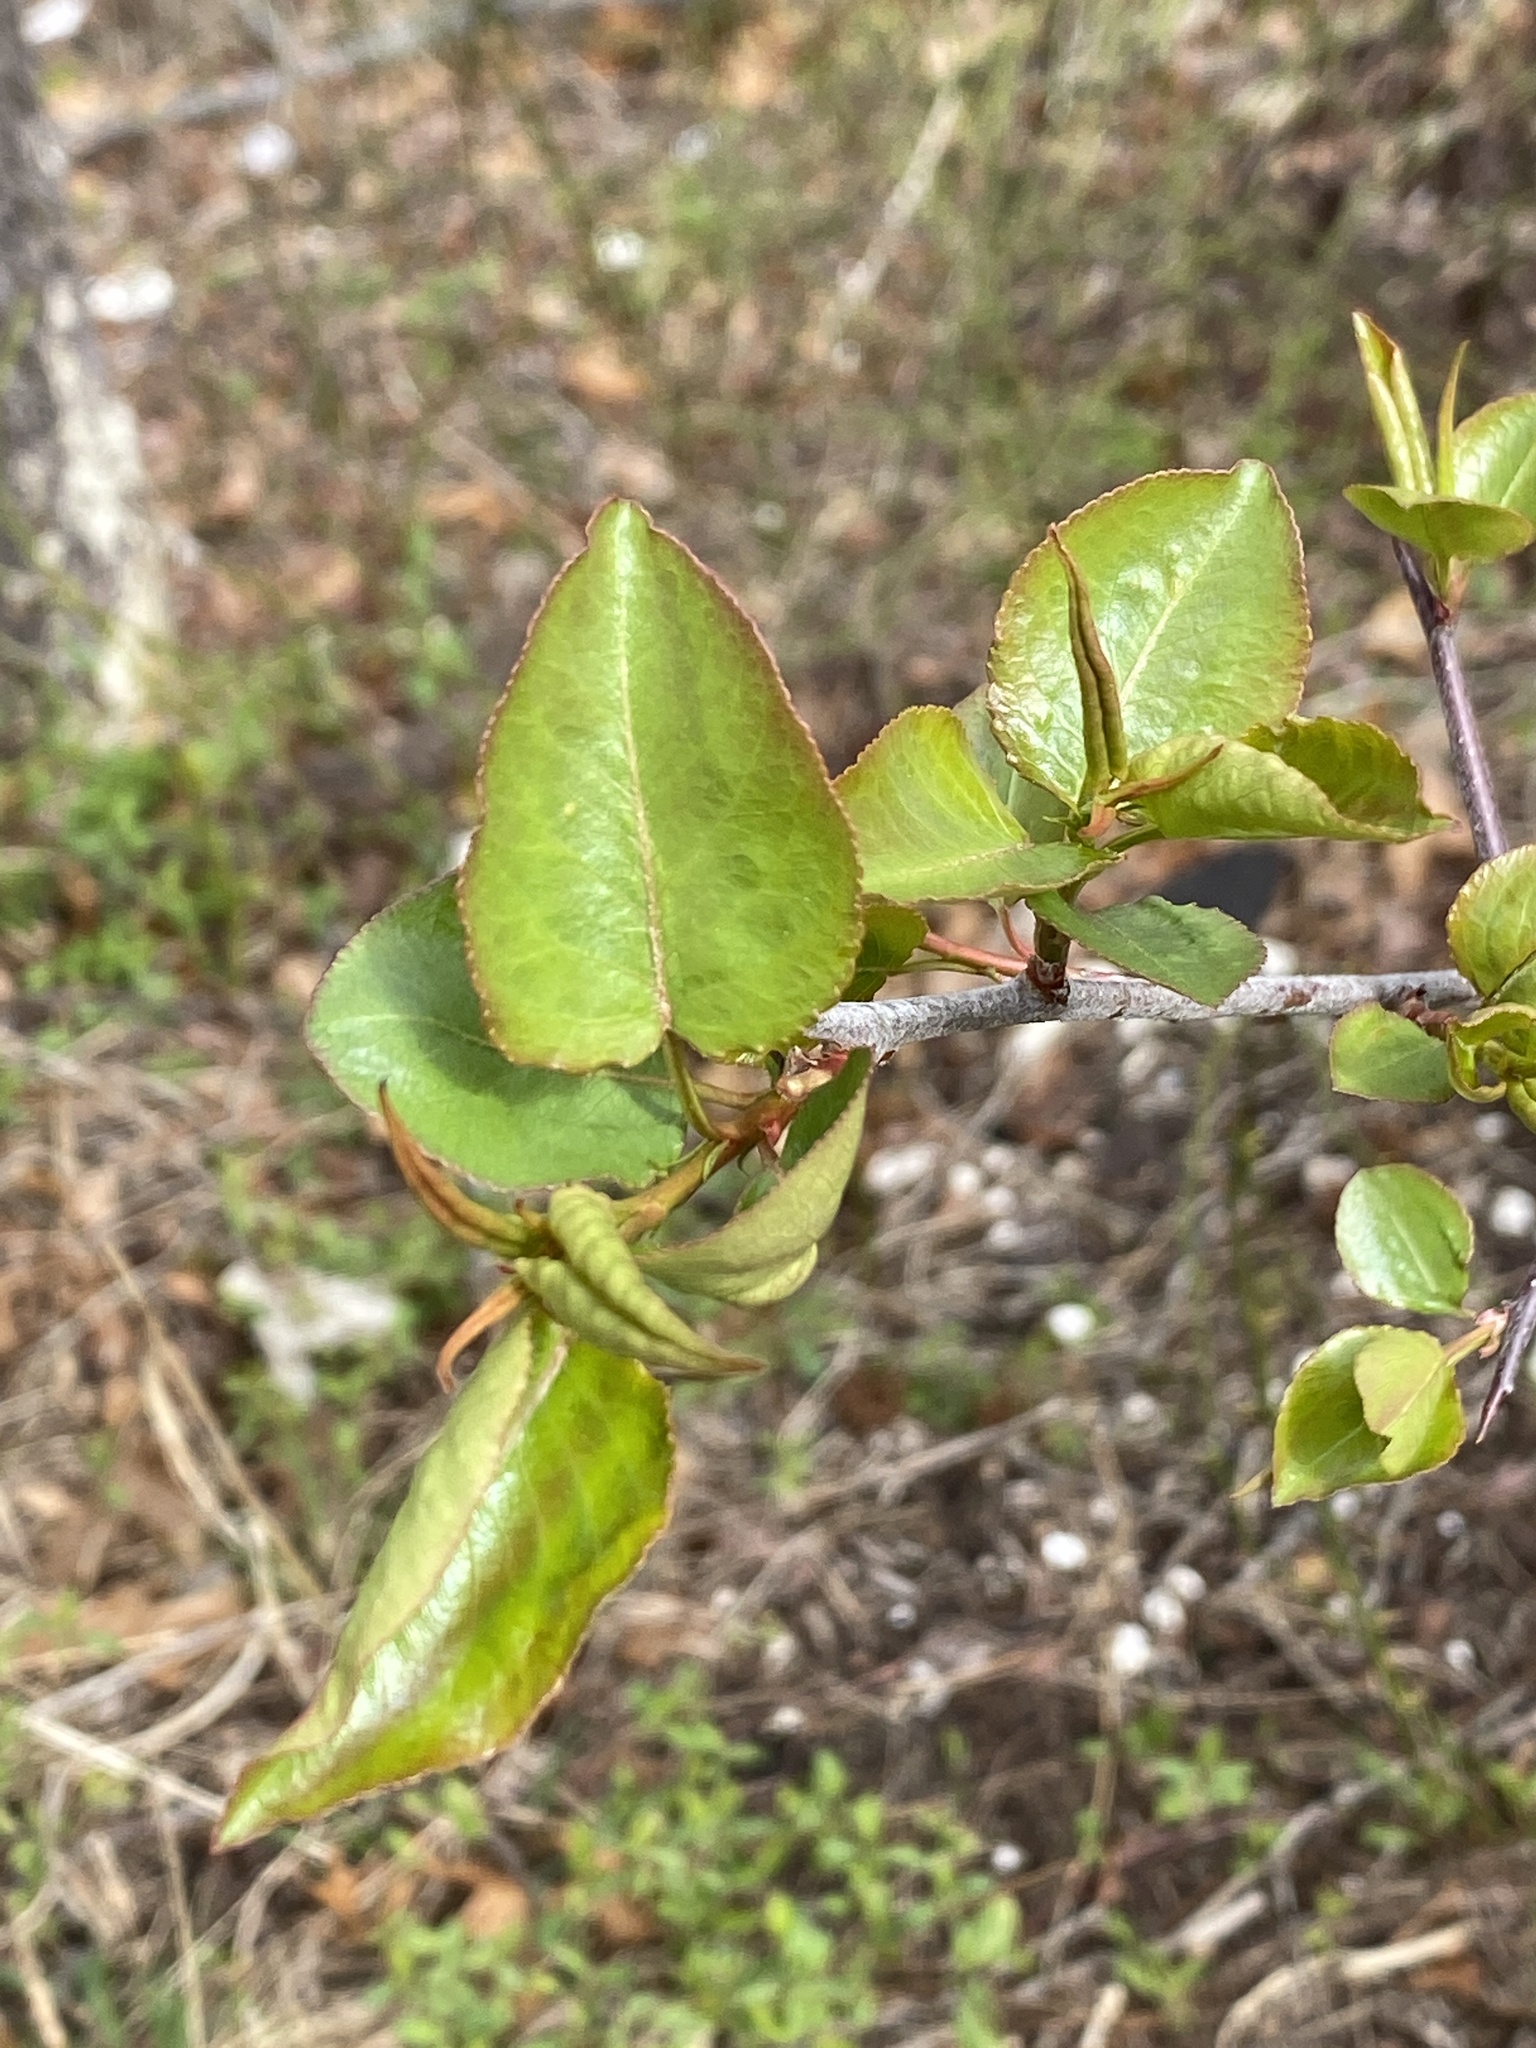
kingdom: Plantae
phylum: Tracheophyta
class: Magnoliopsida
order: Rosales
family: Rosaceae
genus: Pyrus
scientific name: Pyrus calleryana
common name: Callery pear
